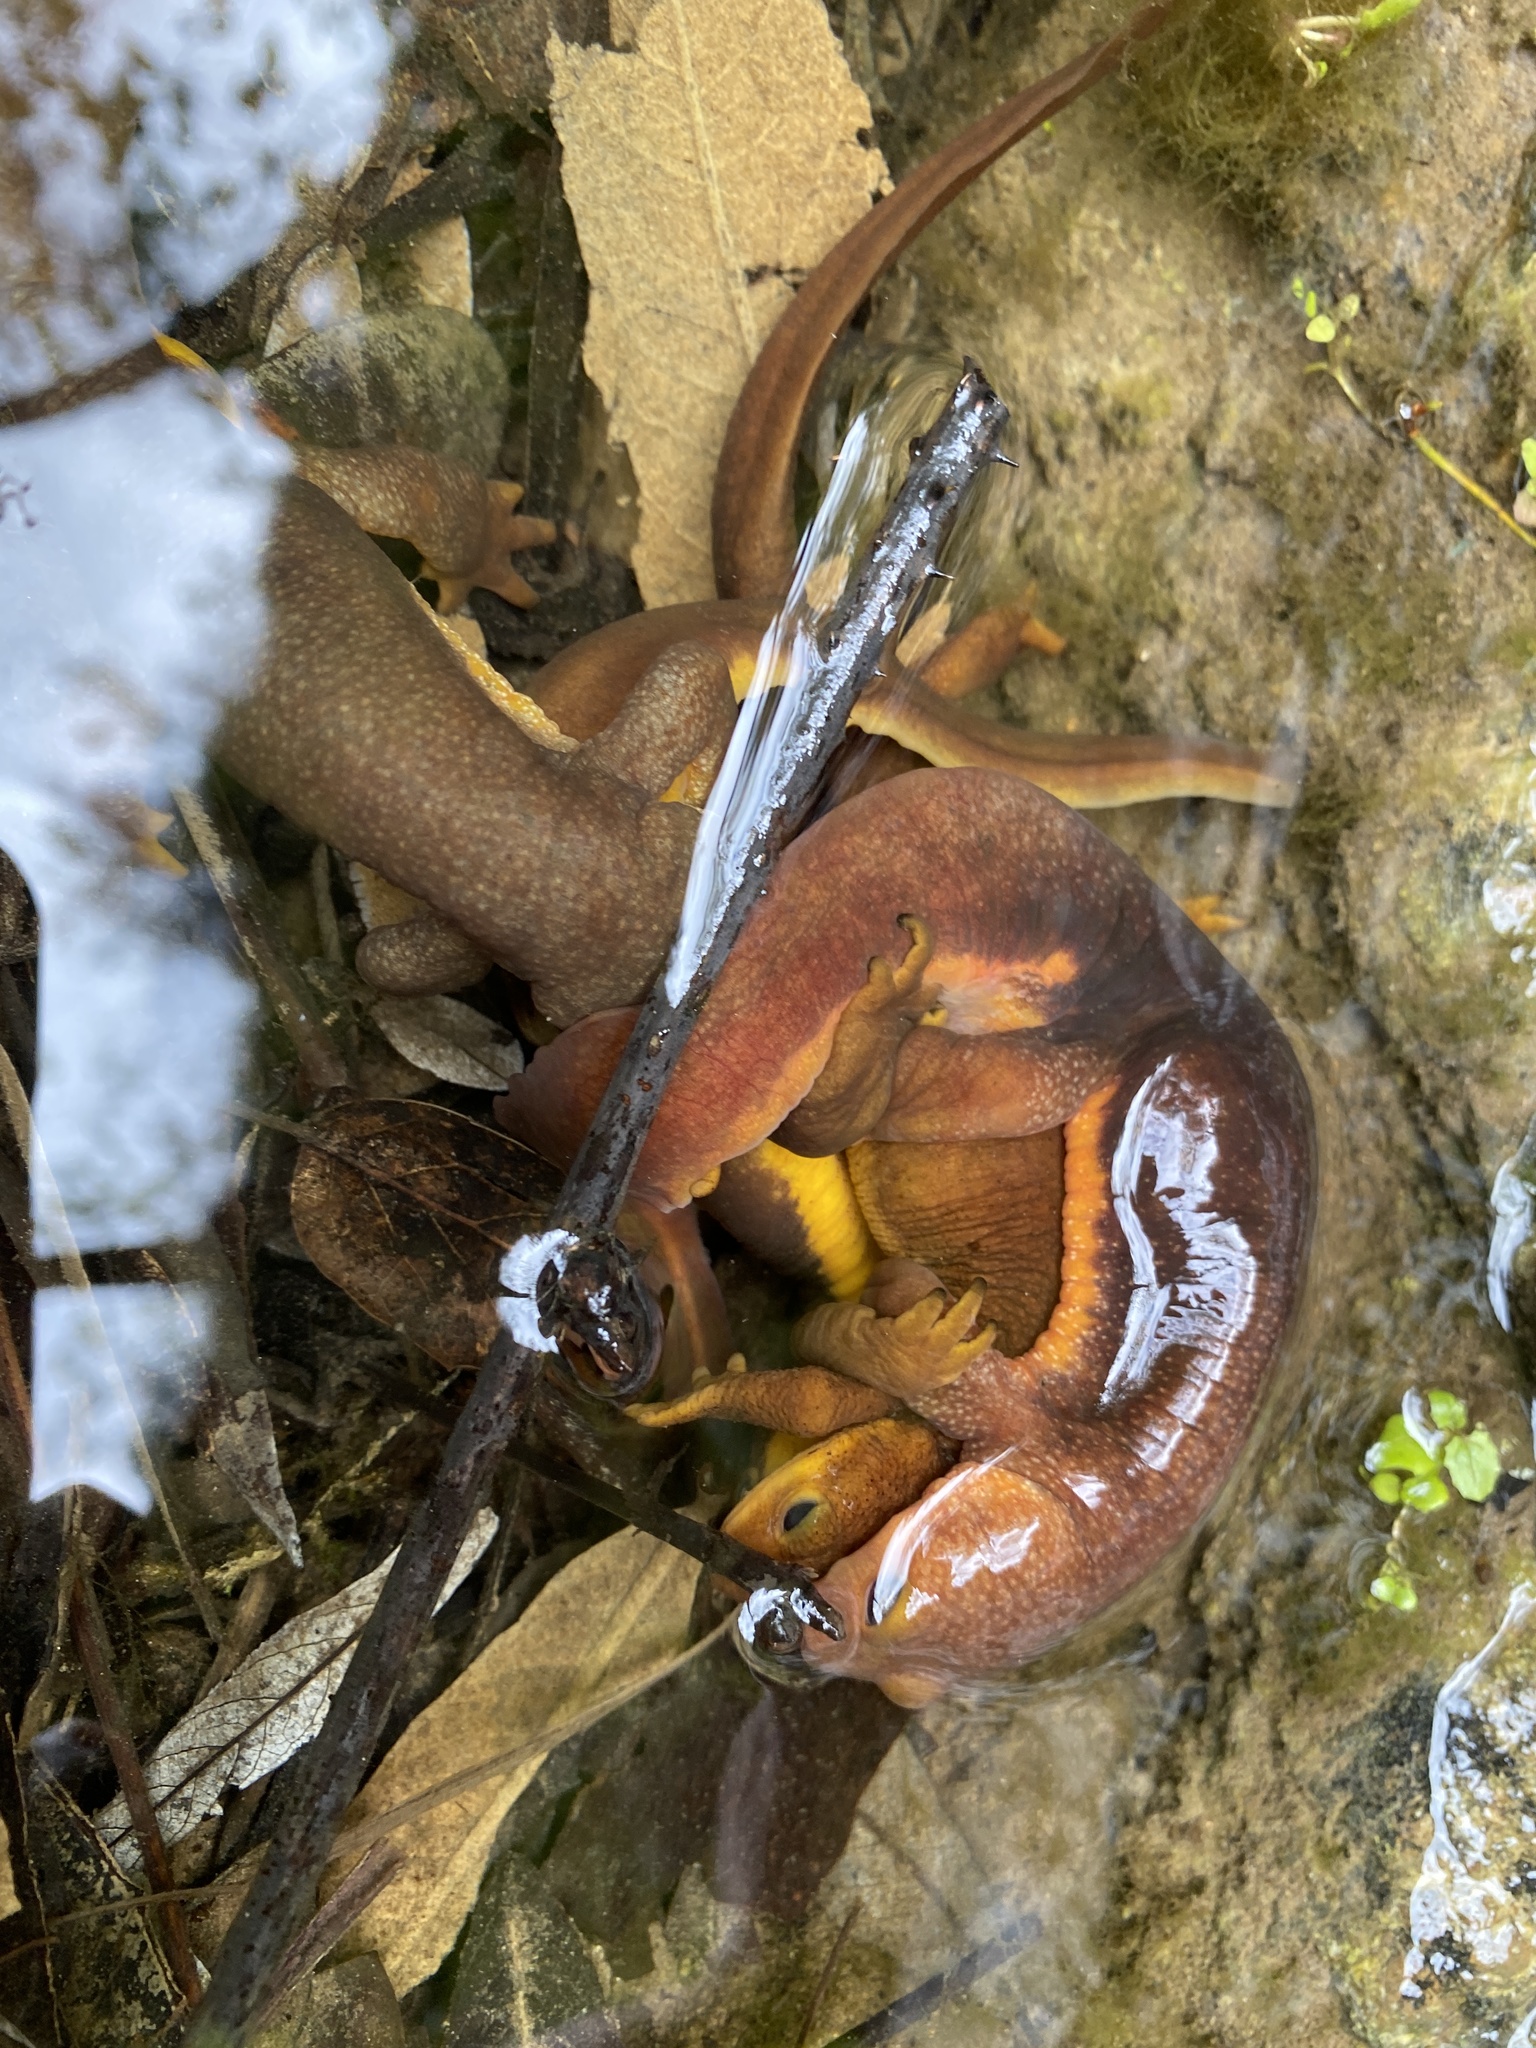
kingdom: Animalia
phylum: Chordata
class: Amphibia
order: Caudata
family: Salamandridae
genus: Taricha
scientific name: Taricha torosa
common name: California newt
